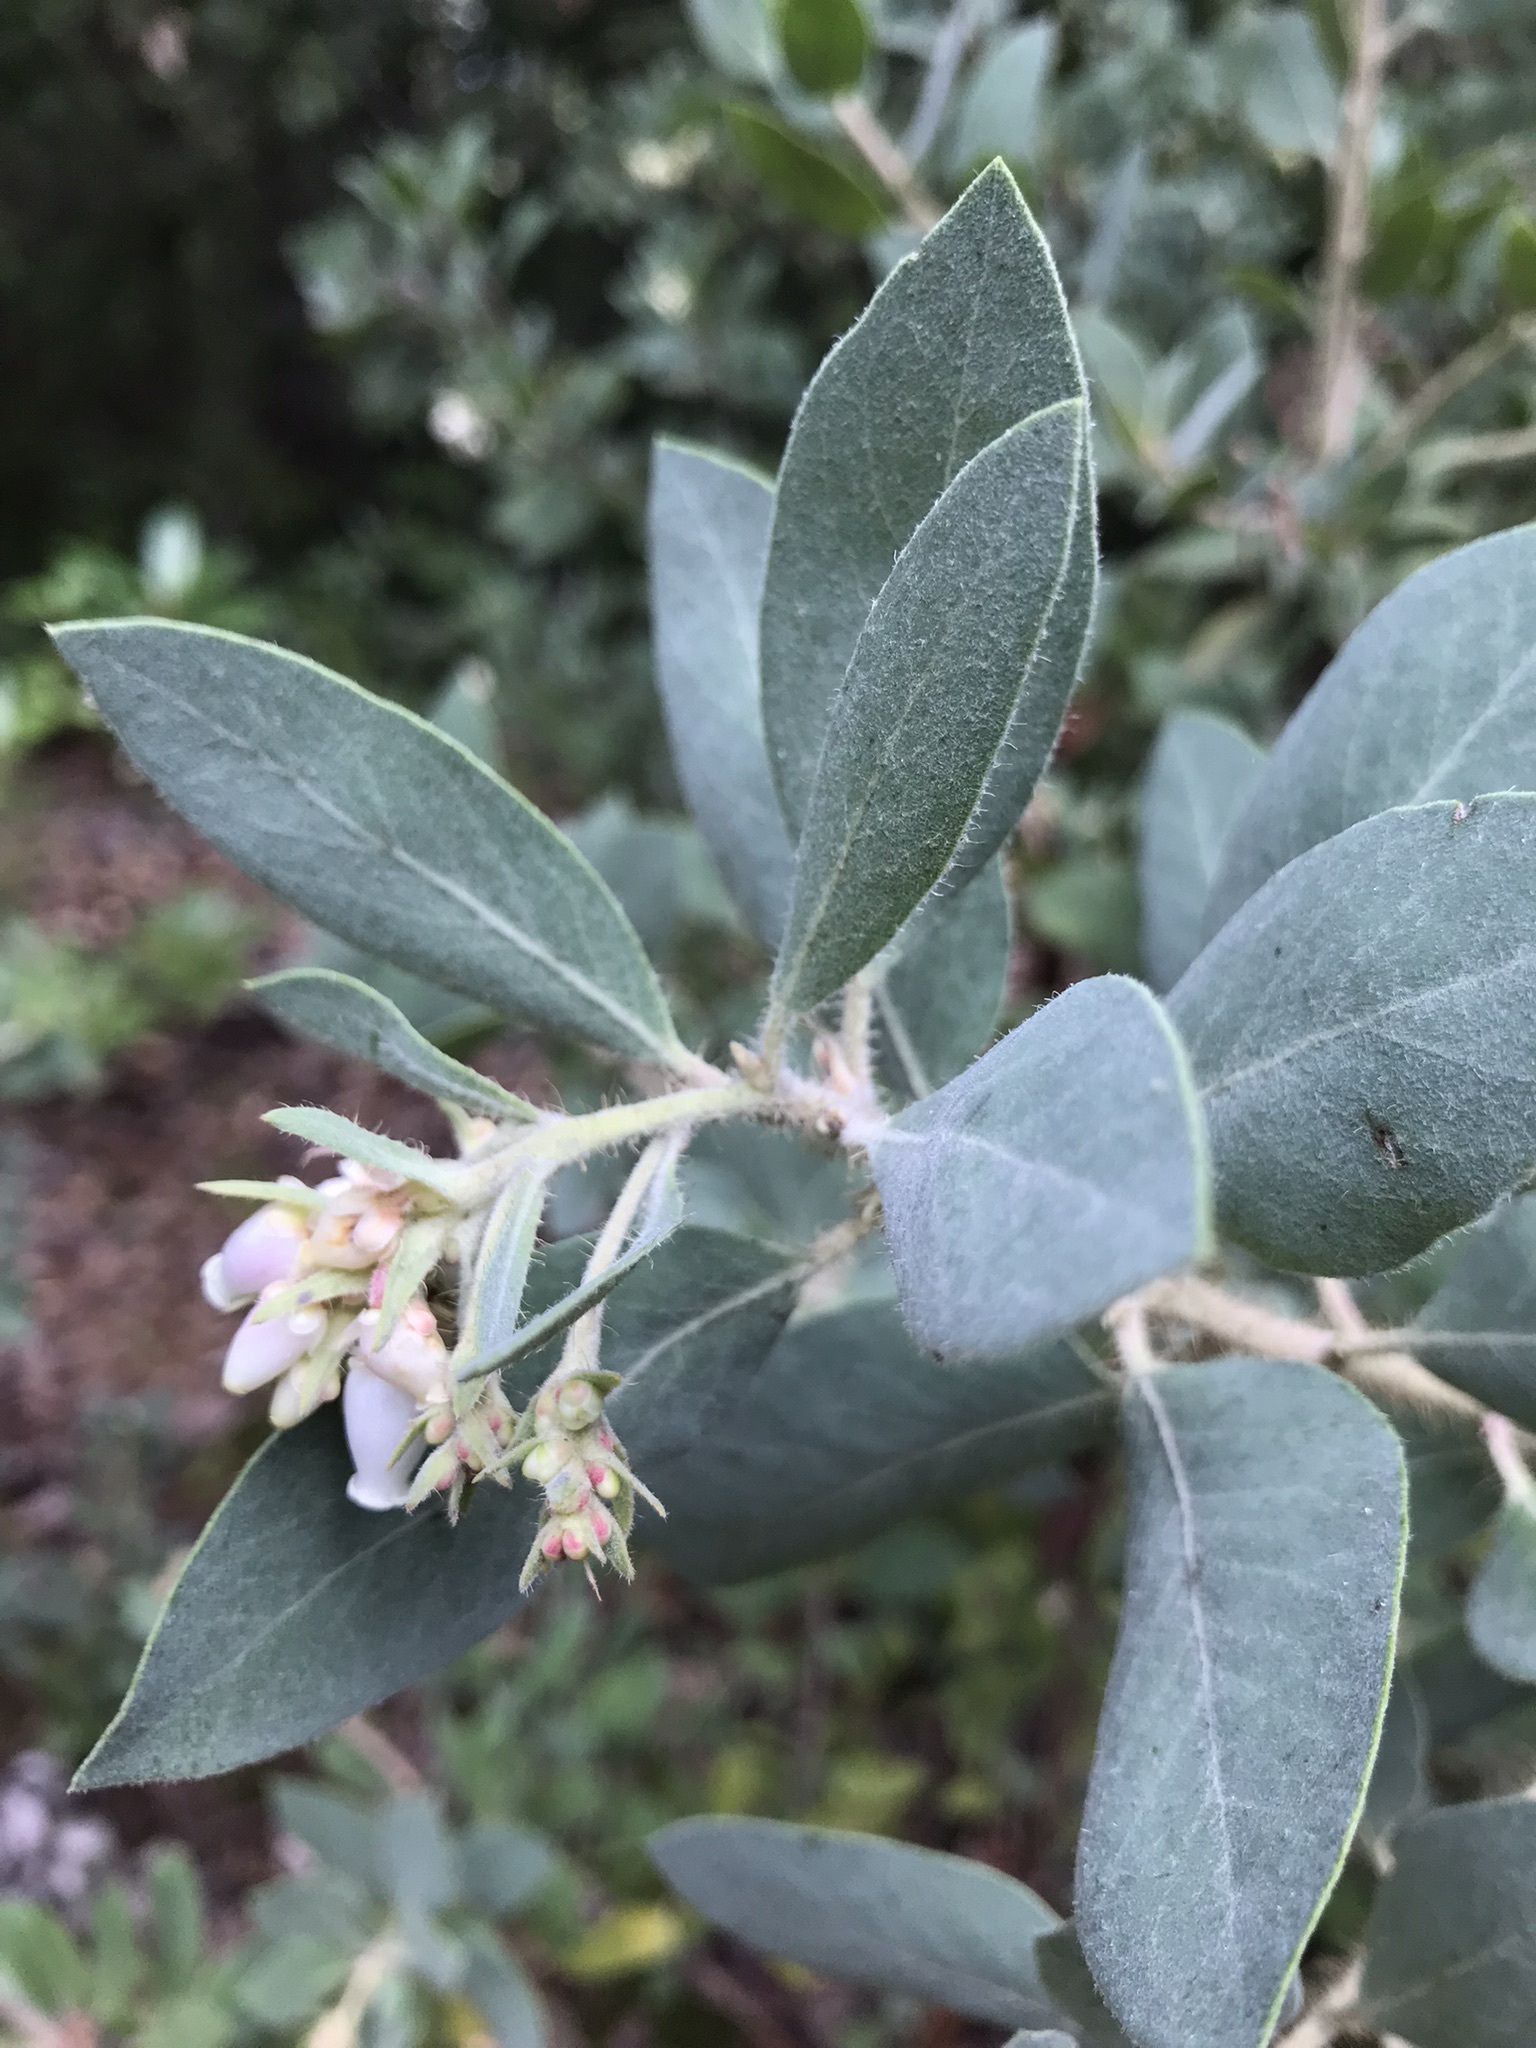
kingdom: Plantae
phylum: Tracheophyta
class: Magnoliopsida
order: Ericales
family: Ericaceae
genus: Arctostaphylos
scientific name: Arctostaphylos columbiana
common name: Bristly bearberry
